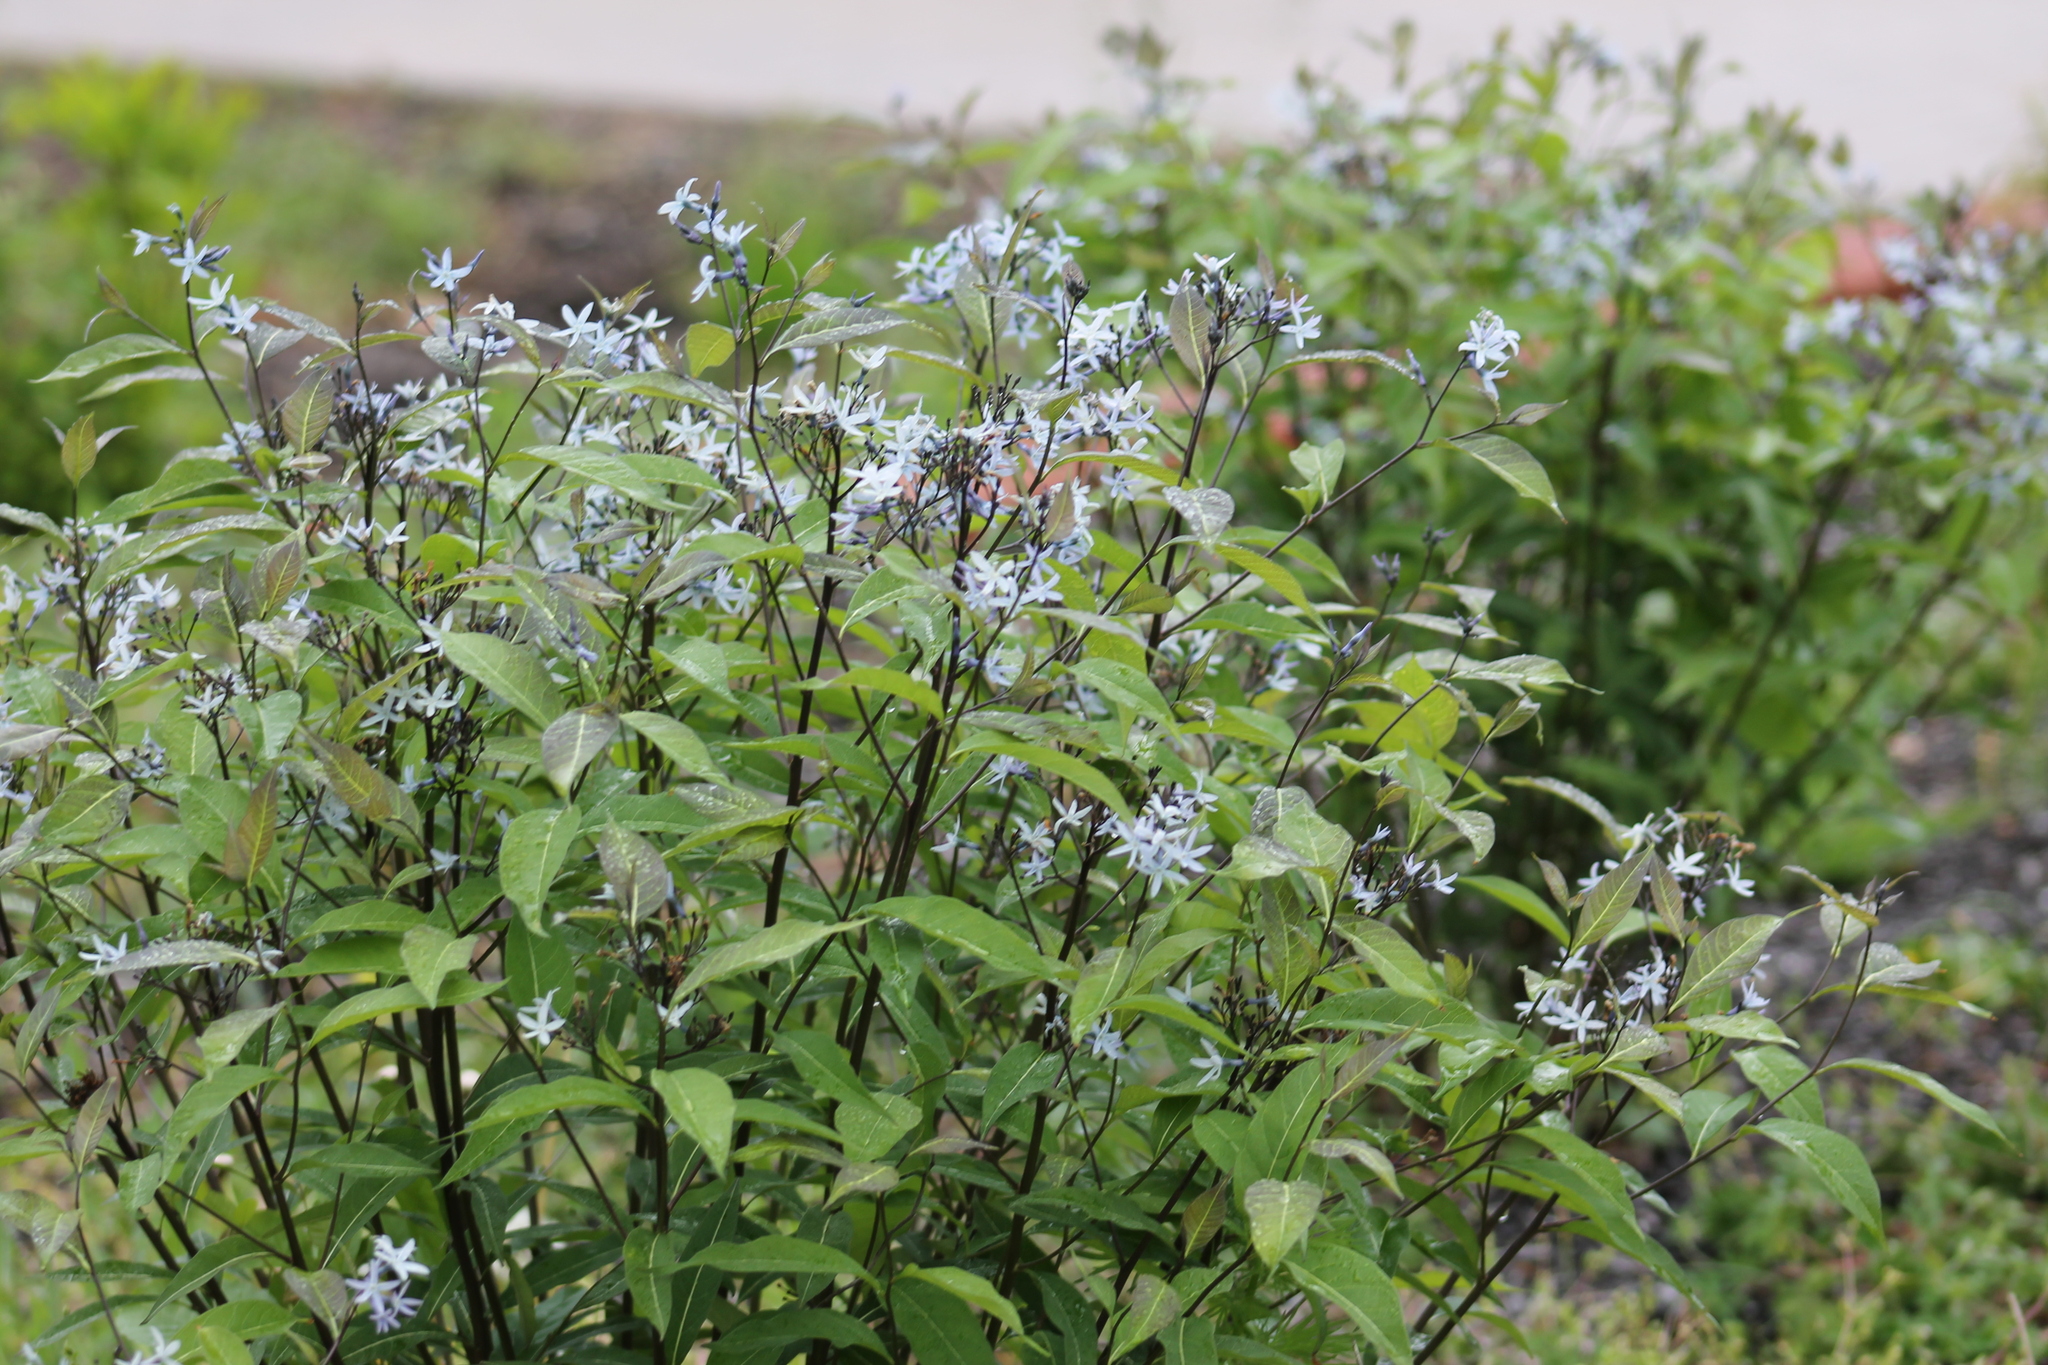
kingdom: Plantae
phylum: Tracheophyta
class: Magnoliopsida
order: Gentianales
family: Apocynaceae
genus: Amsonia
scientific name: Amsonia tabernaemontana
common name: Texas-star
